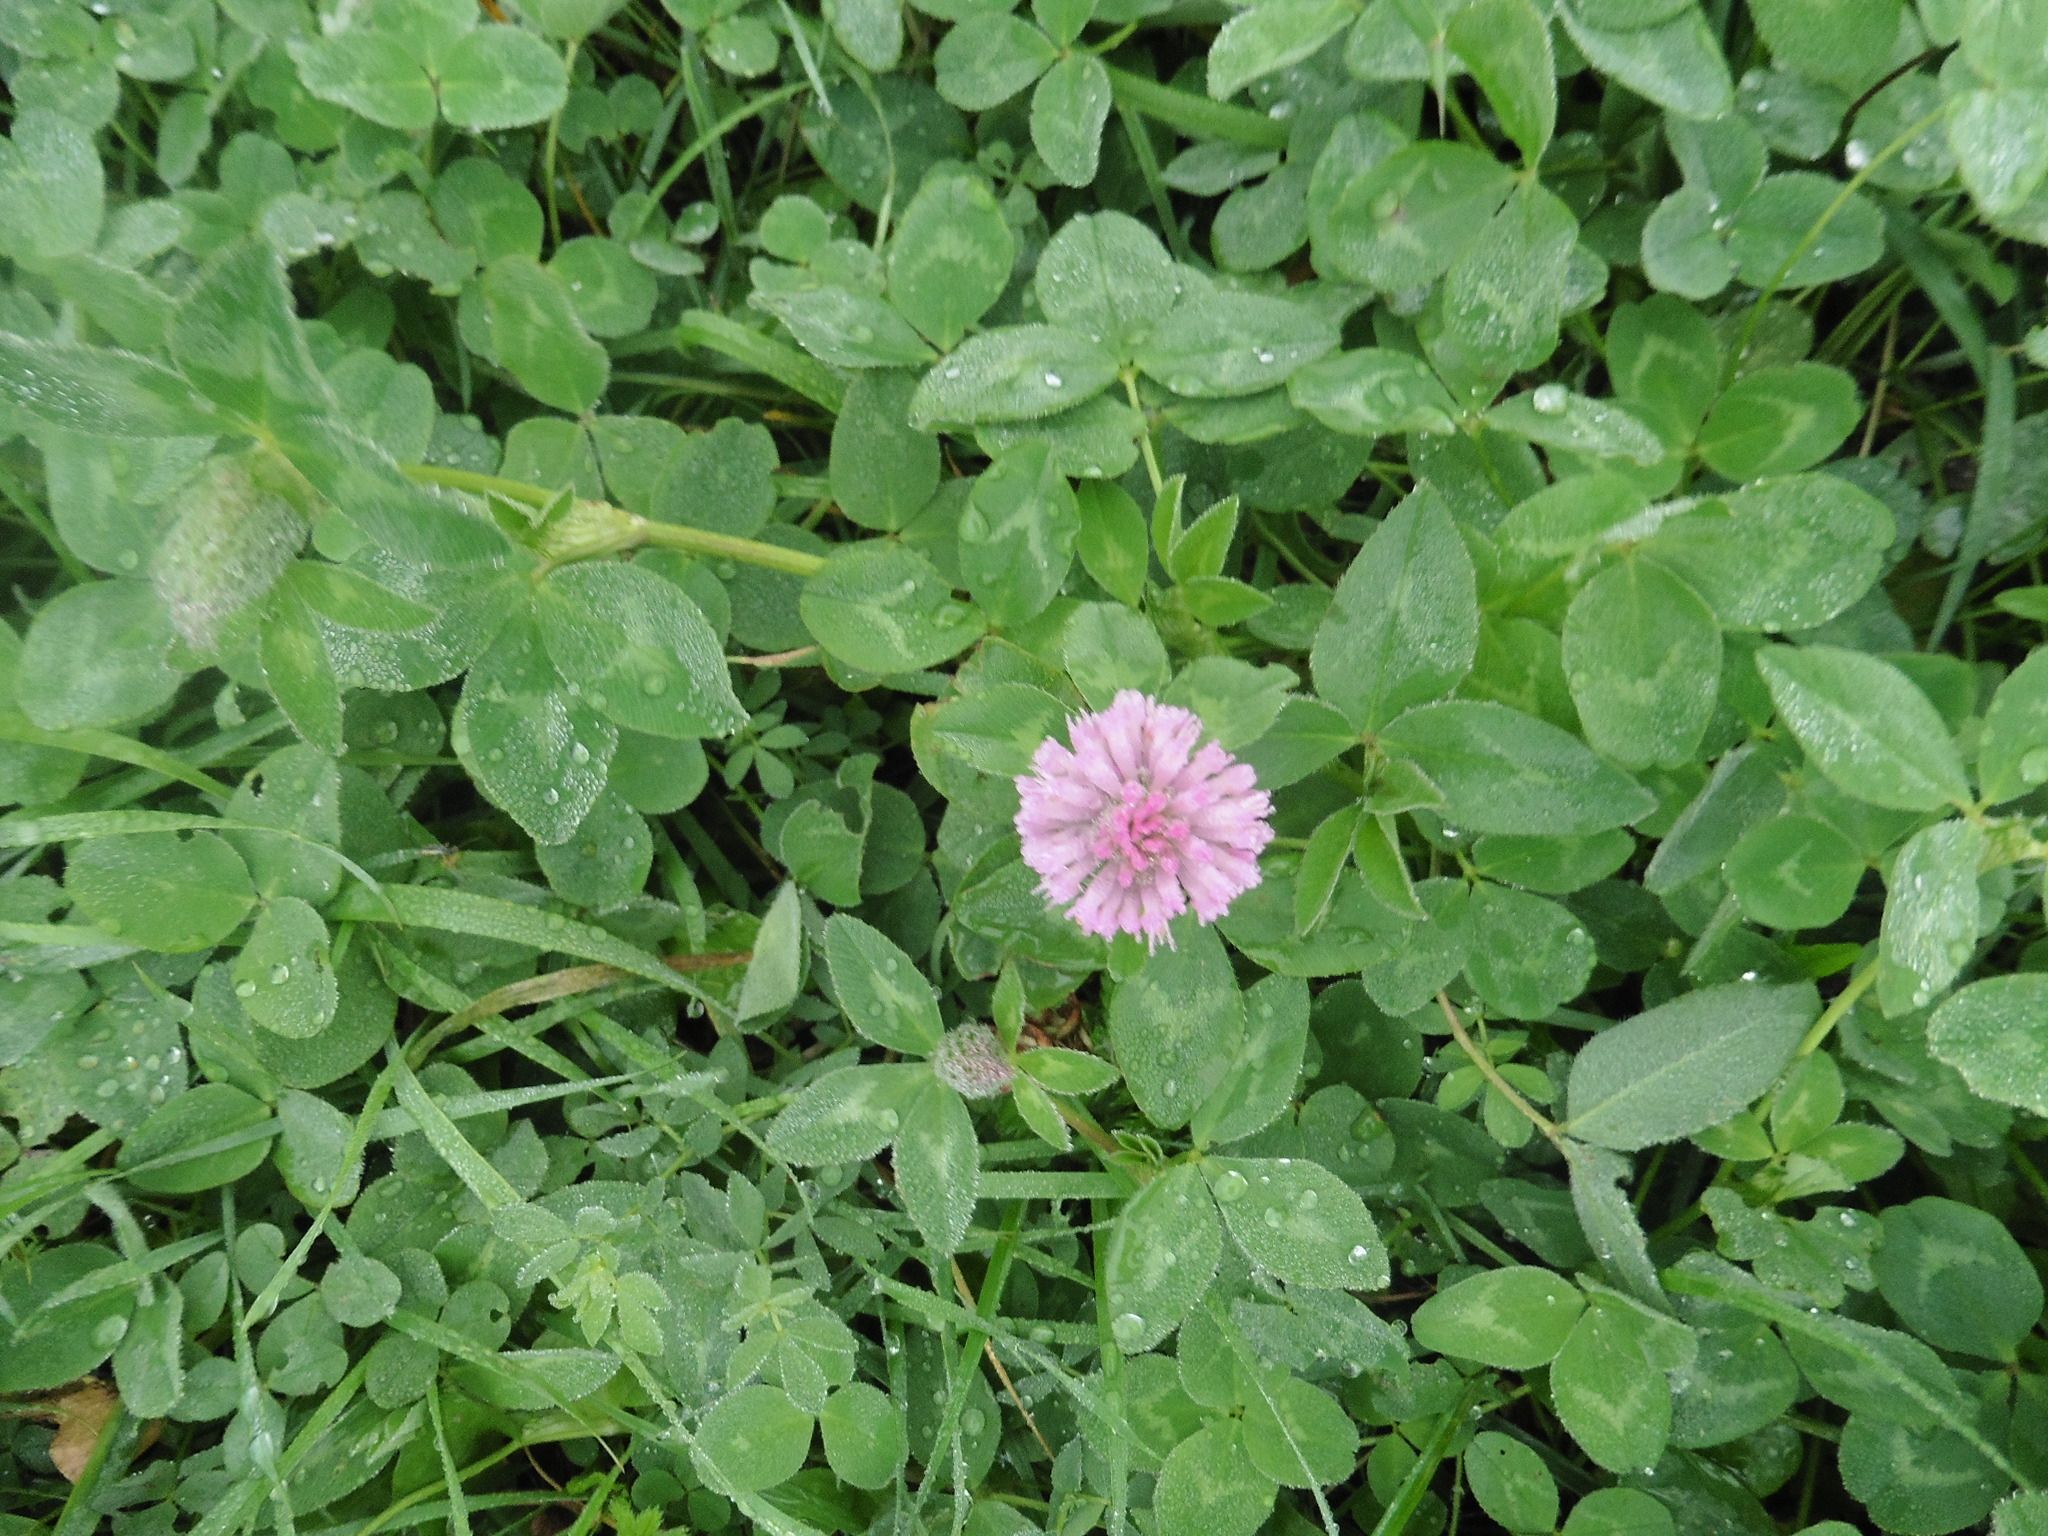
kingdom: Plantae
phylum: Tracheophyta
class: Magnoliopsida
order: Fabales
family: Fabaceae
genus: Trifolium
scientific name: Trifolium pratense
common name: Red clover
